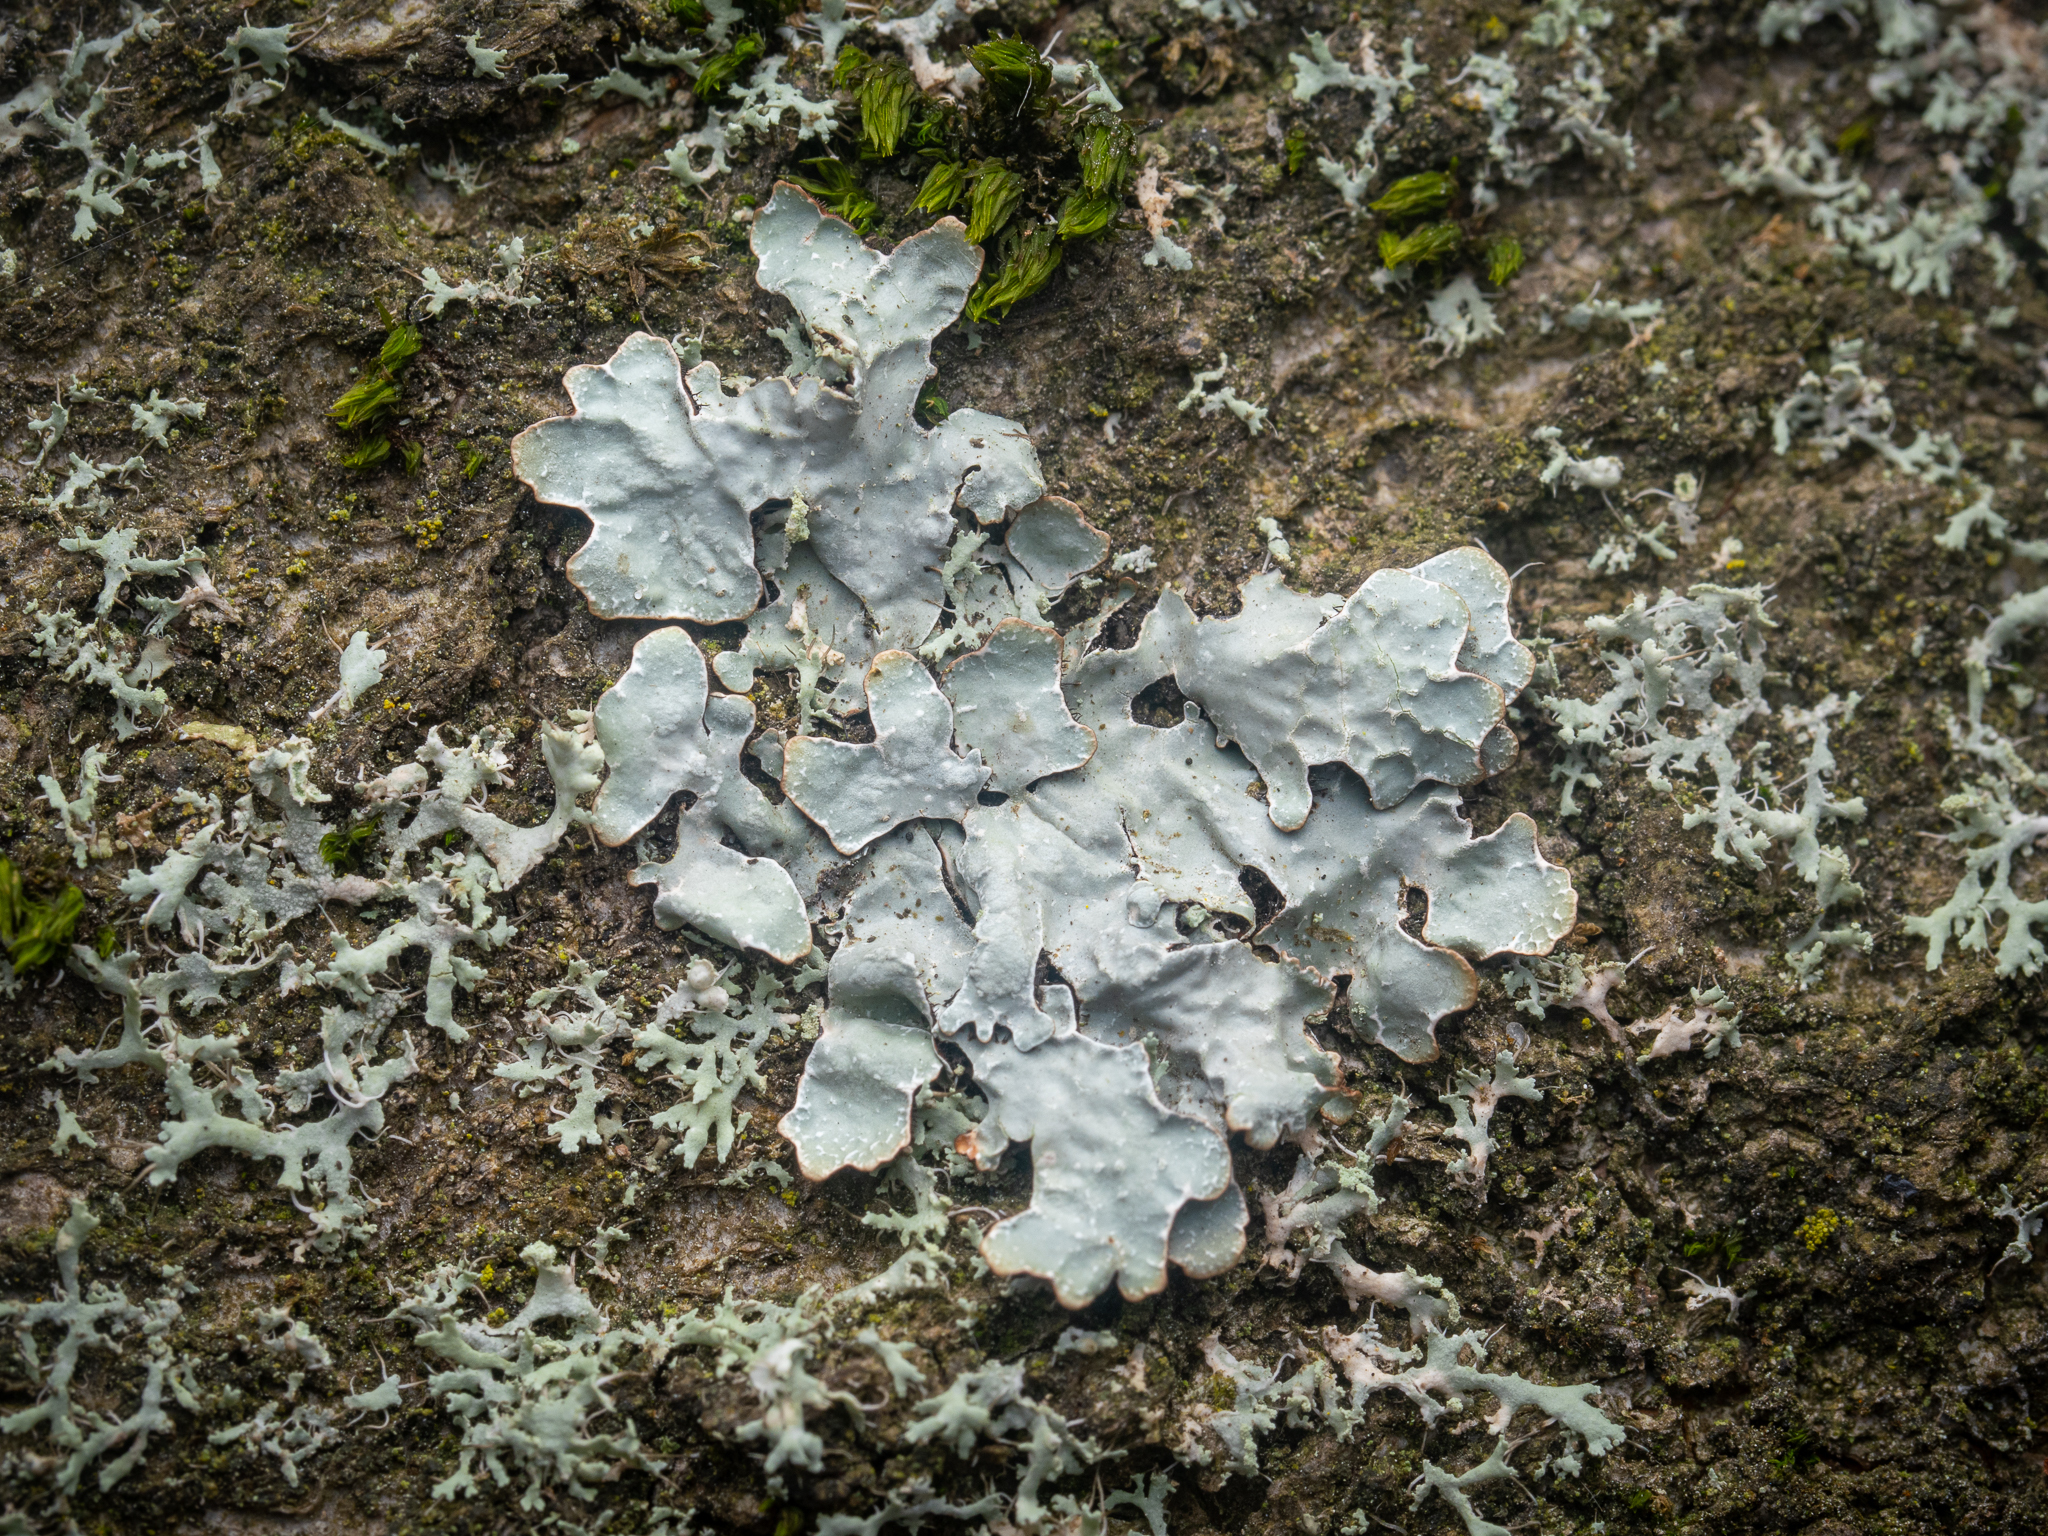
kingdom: Fungi
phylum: Ascomycota
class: Lecanoromycetes
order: Lecanorales
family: Parmeliaceae
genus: Parmelia
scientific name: Parmelia sulcata
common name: Netted shield lichen
